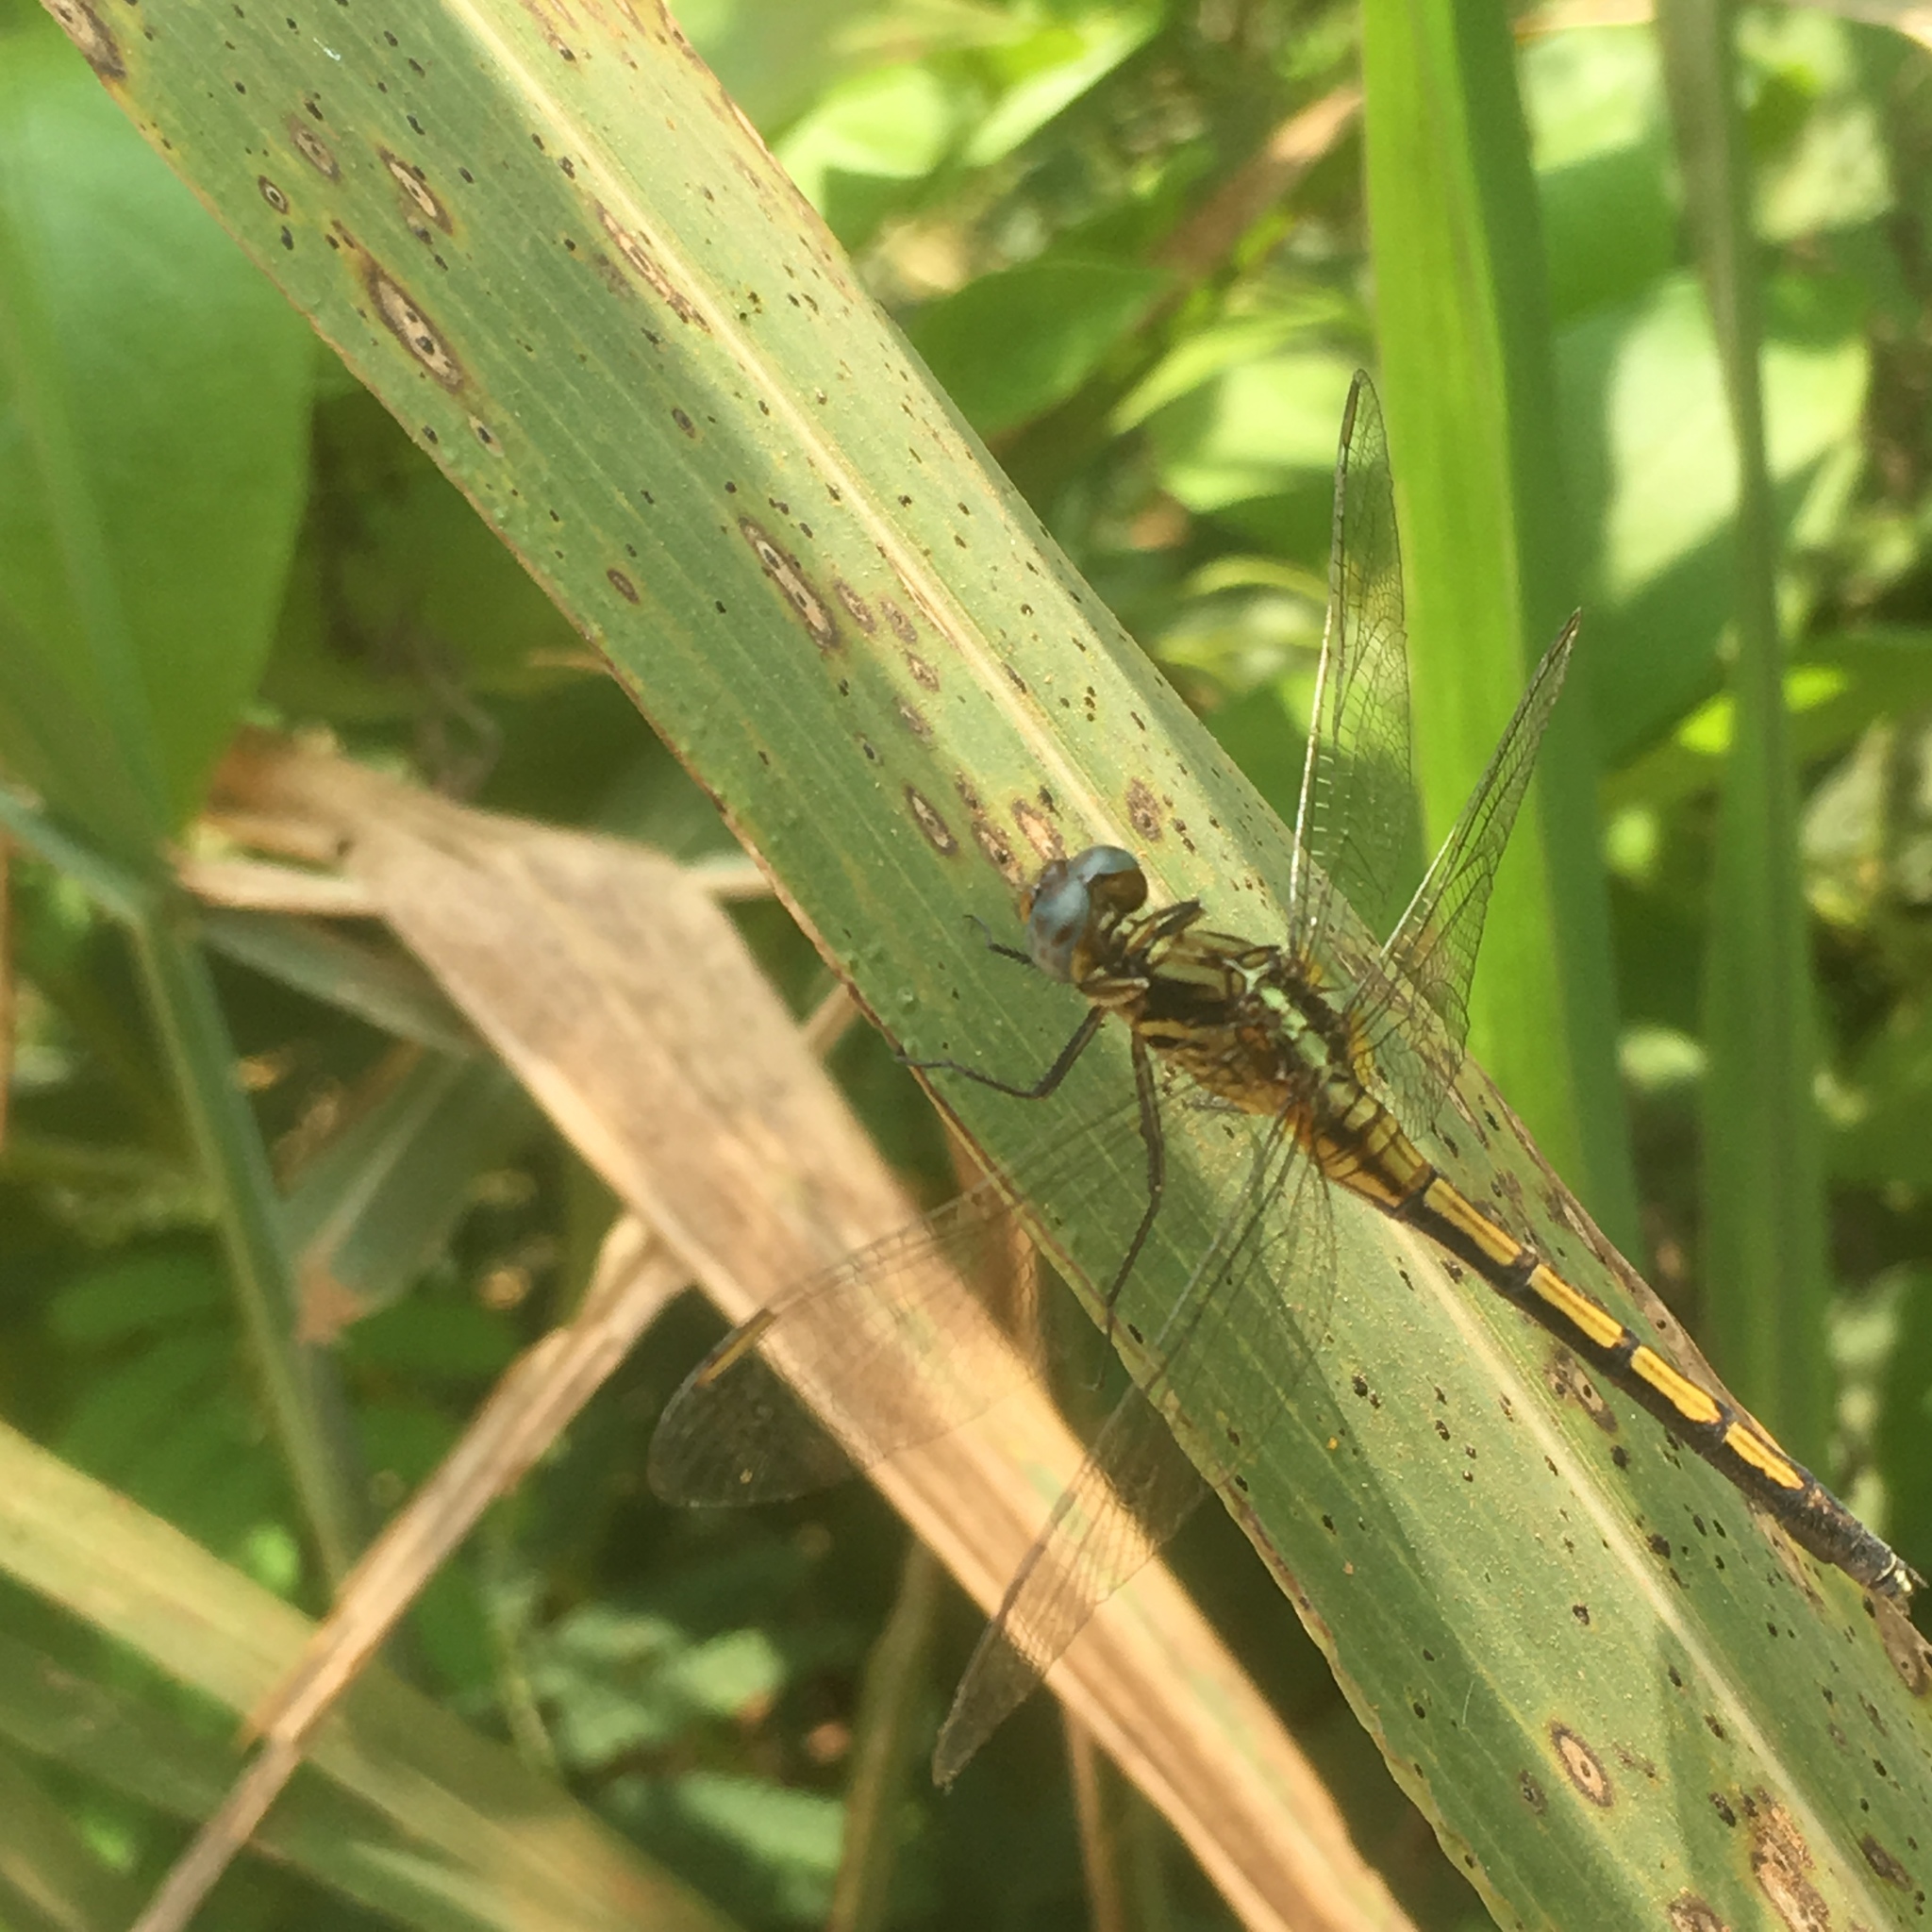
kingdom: Animalia
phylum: Arthropoda
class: Insecta
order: Odonata
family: Libellulidae
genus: Orthetrum
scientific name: Orthetrum hintzi
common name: Dark-shouldered skimmer
